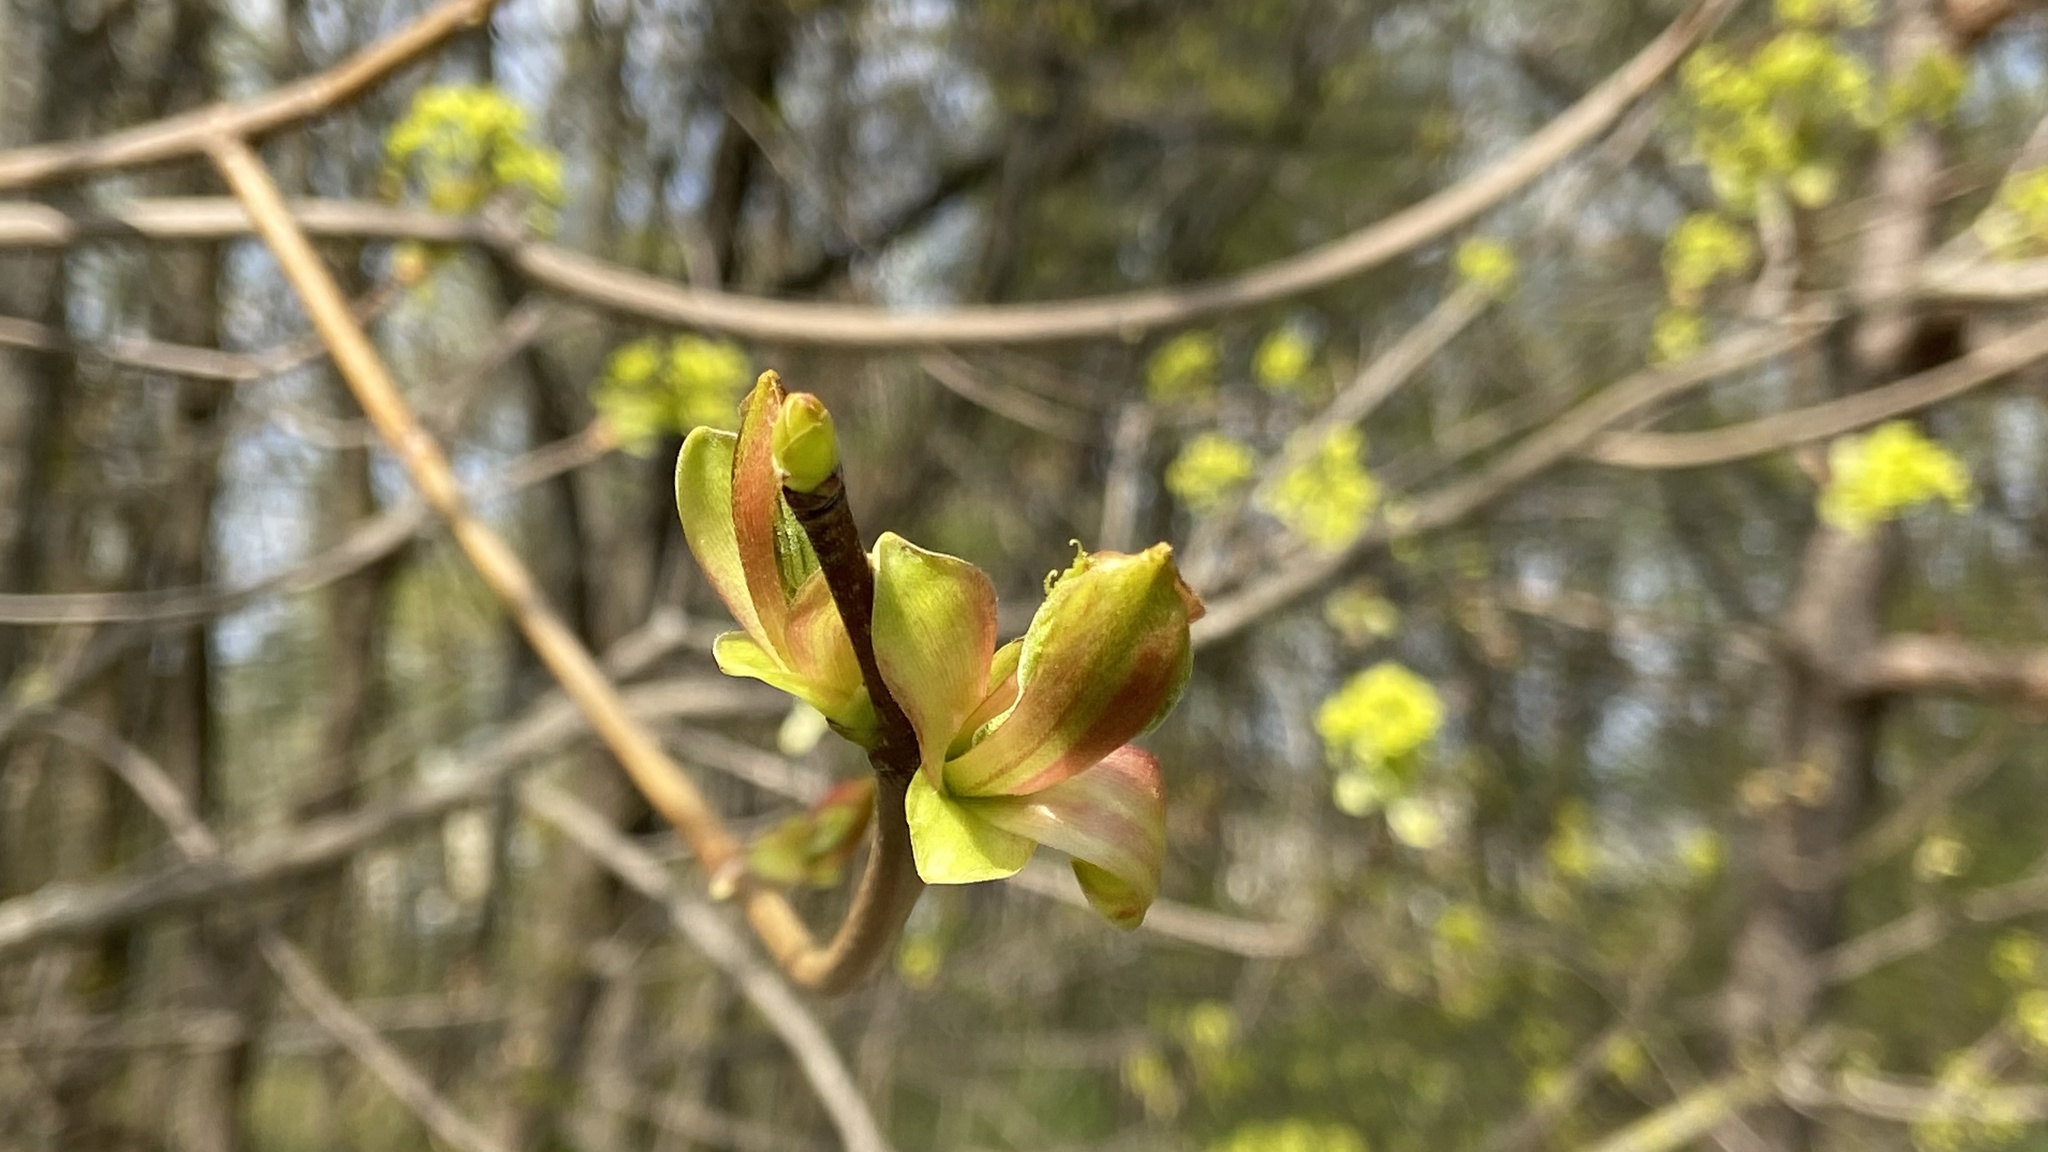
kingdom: Plantae
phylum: Tracheophyta
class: Magnoliopsida
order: Sapindales
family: Sapindaceae
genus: Acer
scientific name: Acer platanoides
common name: Norway maple
